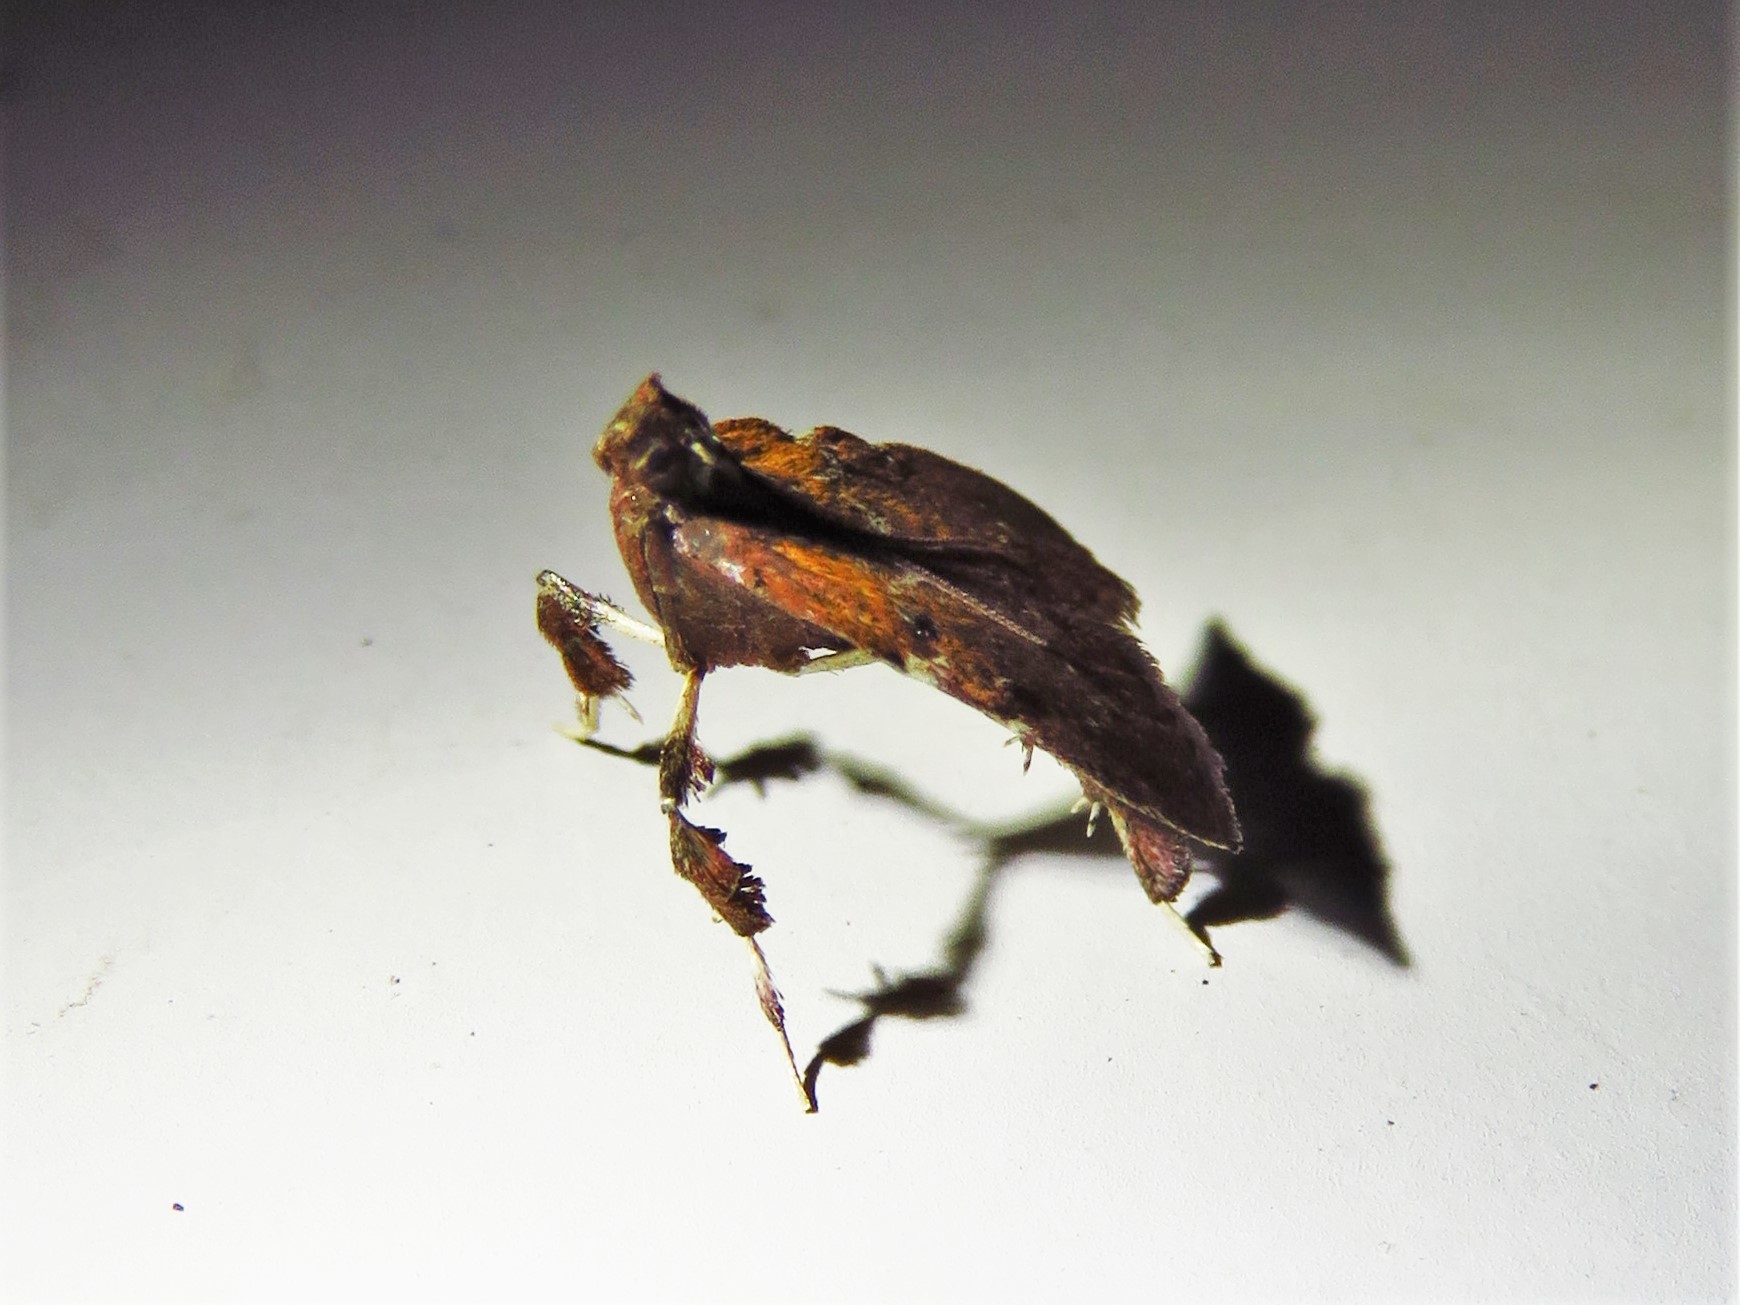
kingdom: Animalia
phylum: Arthropoda
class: Insecta
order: Lepidoptera
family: Pyralidae
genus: Galasa
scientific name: Galasa nigrinodis
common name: Boxwood leaftier moth
